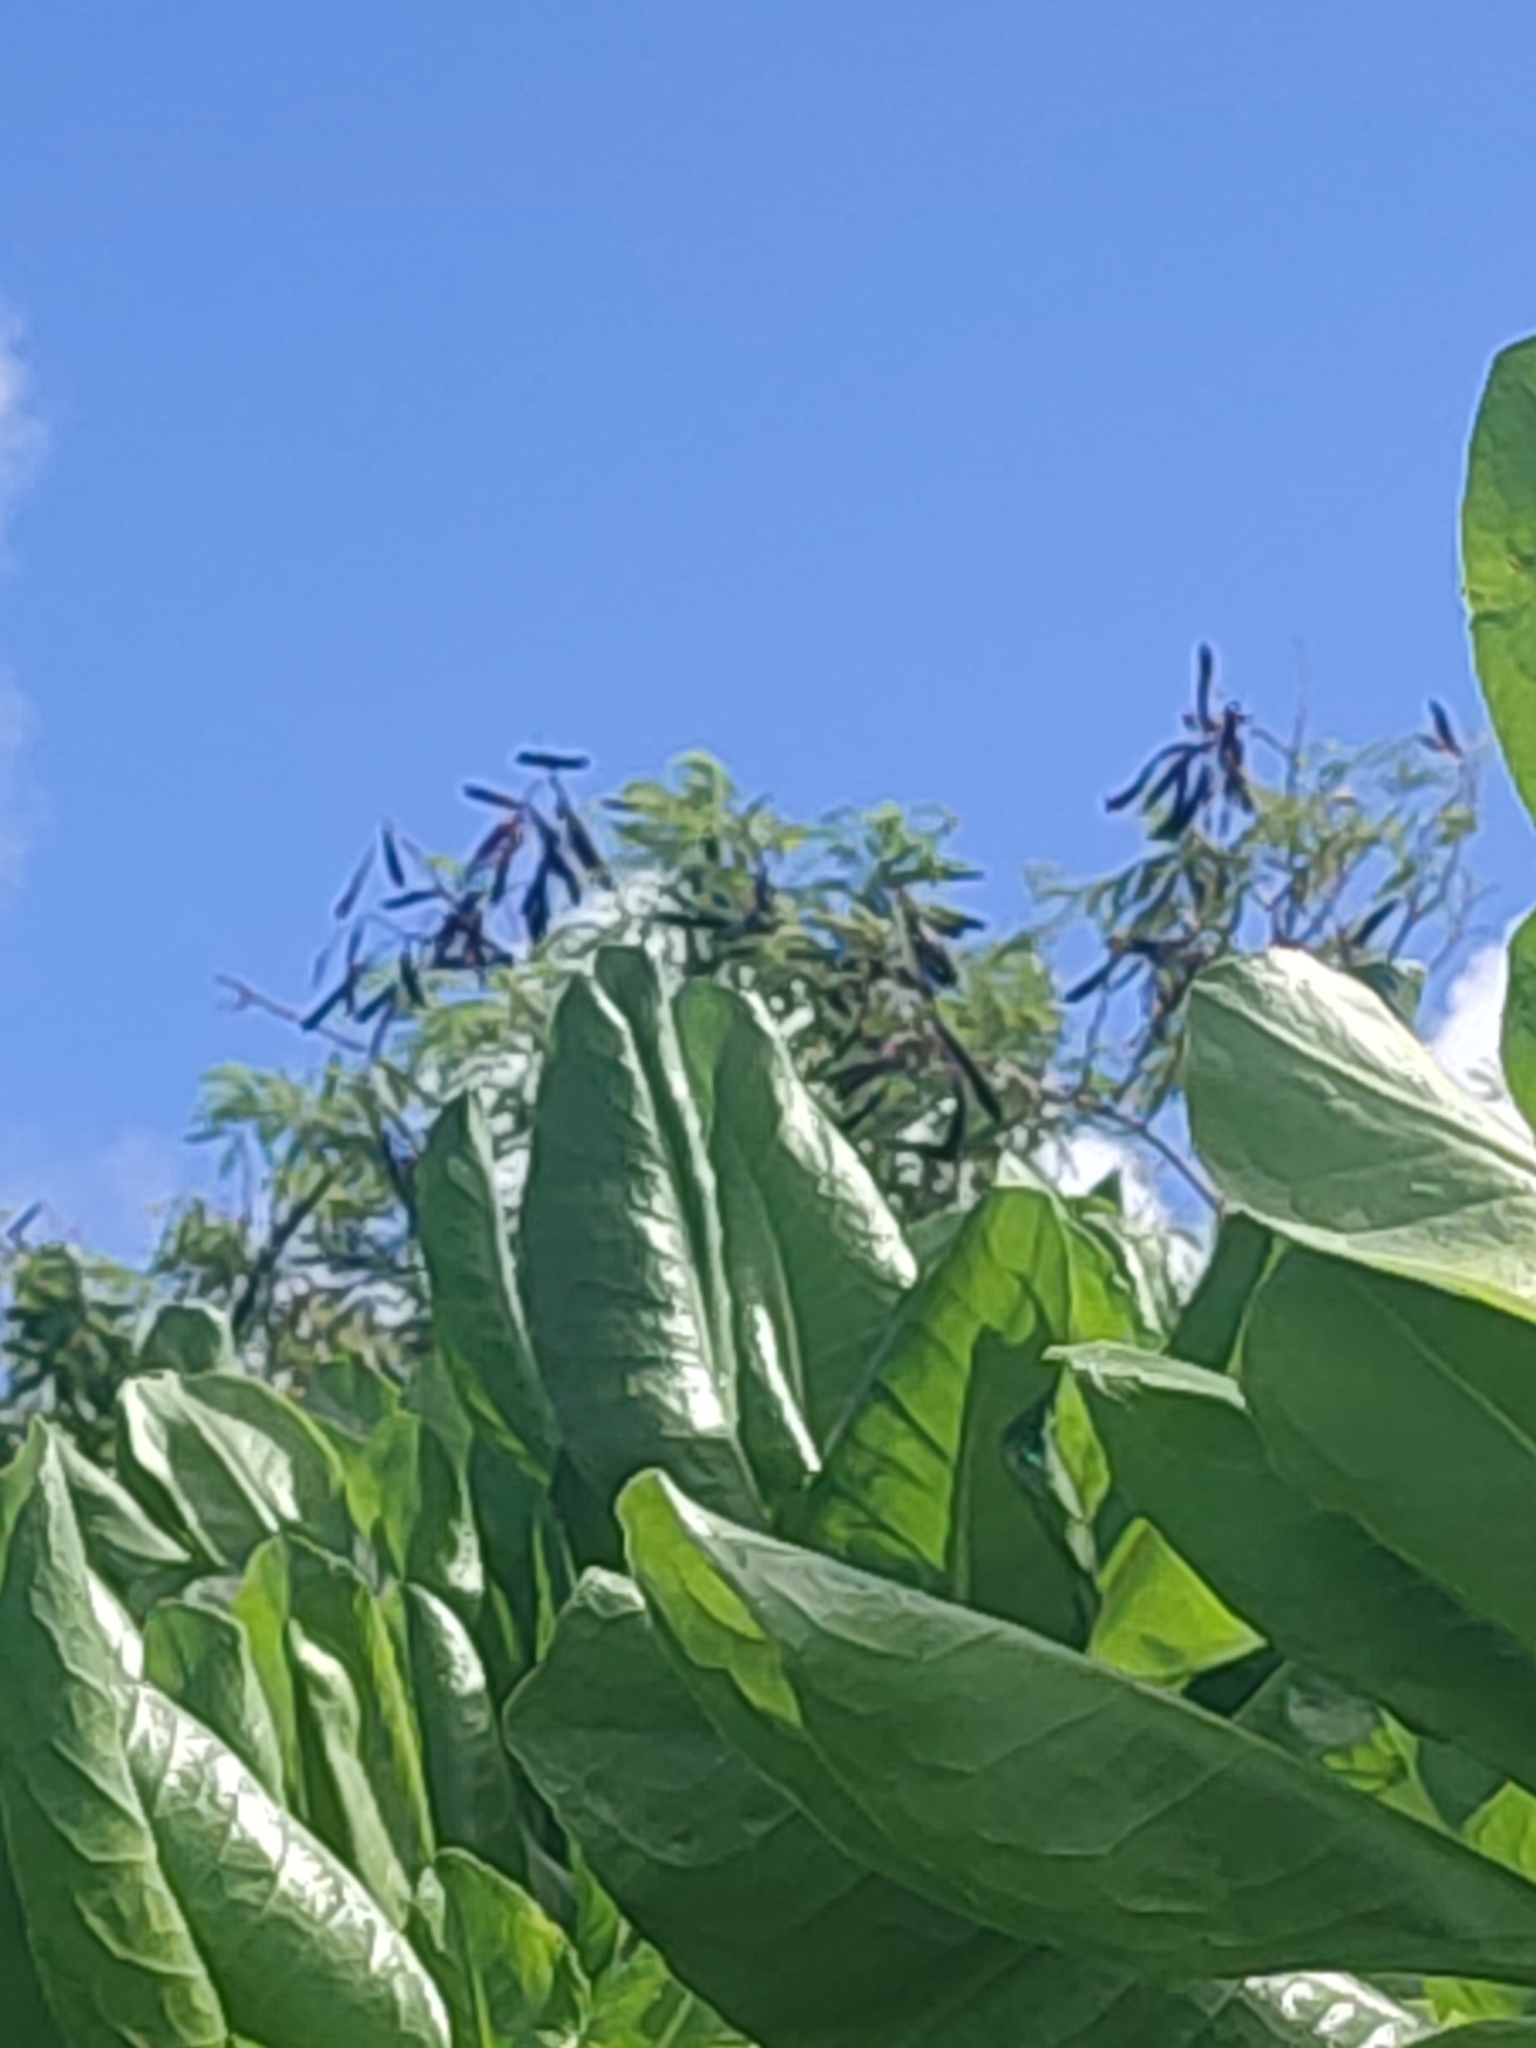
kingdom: Plantae
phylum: Tracheophyta
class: Magnoliopsida
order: Fabales
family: Fabaceae
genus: Leucaena
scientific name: Leucaena leucocephala
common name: White leadtree
